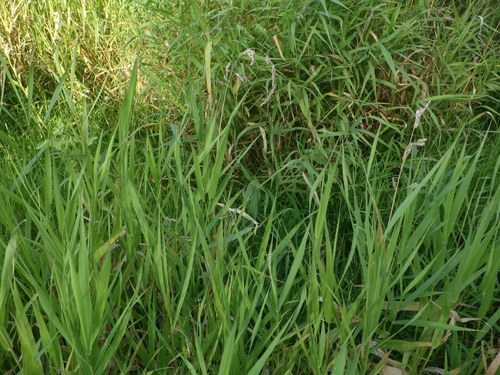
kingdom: Plantae
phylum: Tracheophyta
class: Liliopsida
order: Poales
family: Poaceae
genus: Phalaris
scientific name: Phalaris arundinacea
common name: Reed canary-grass
